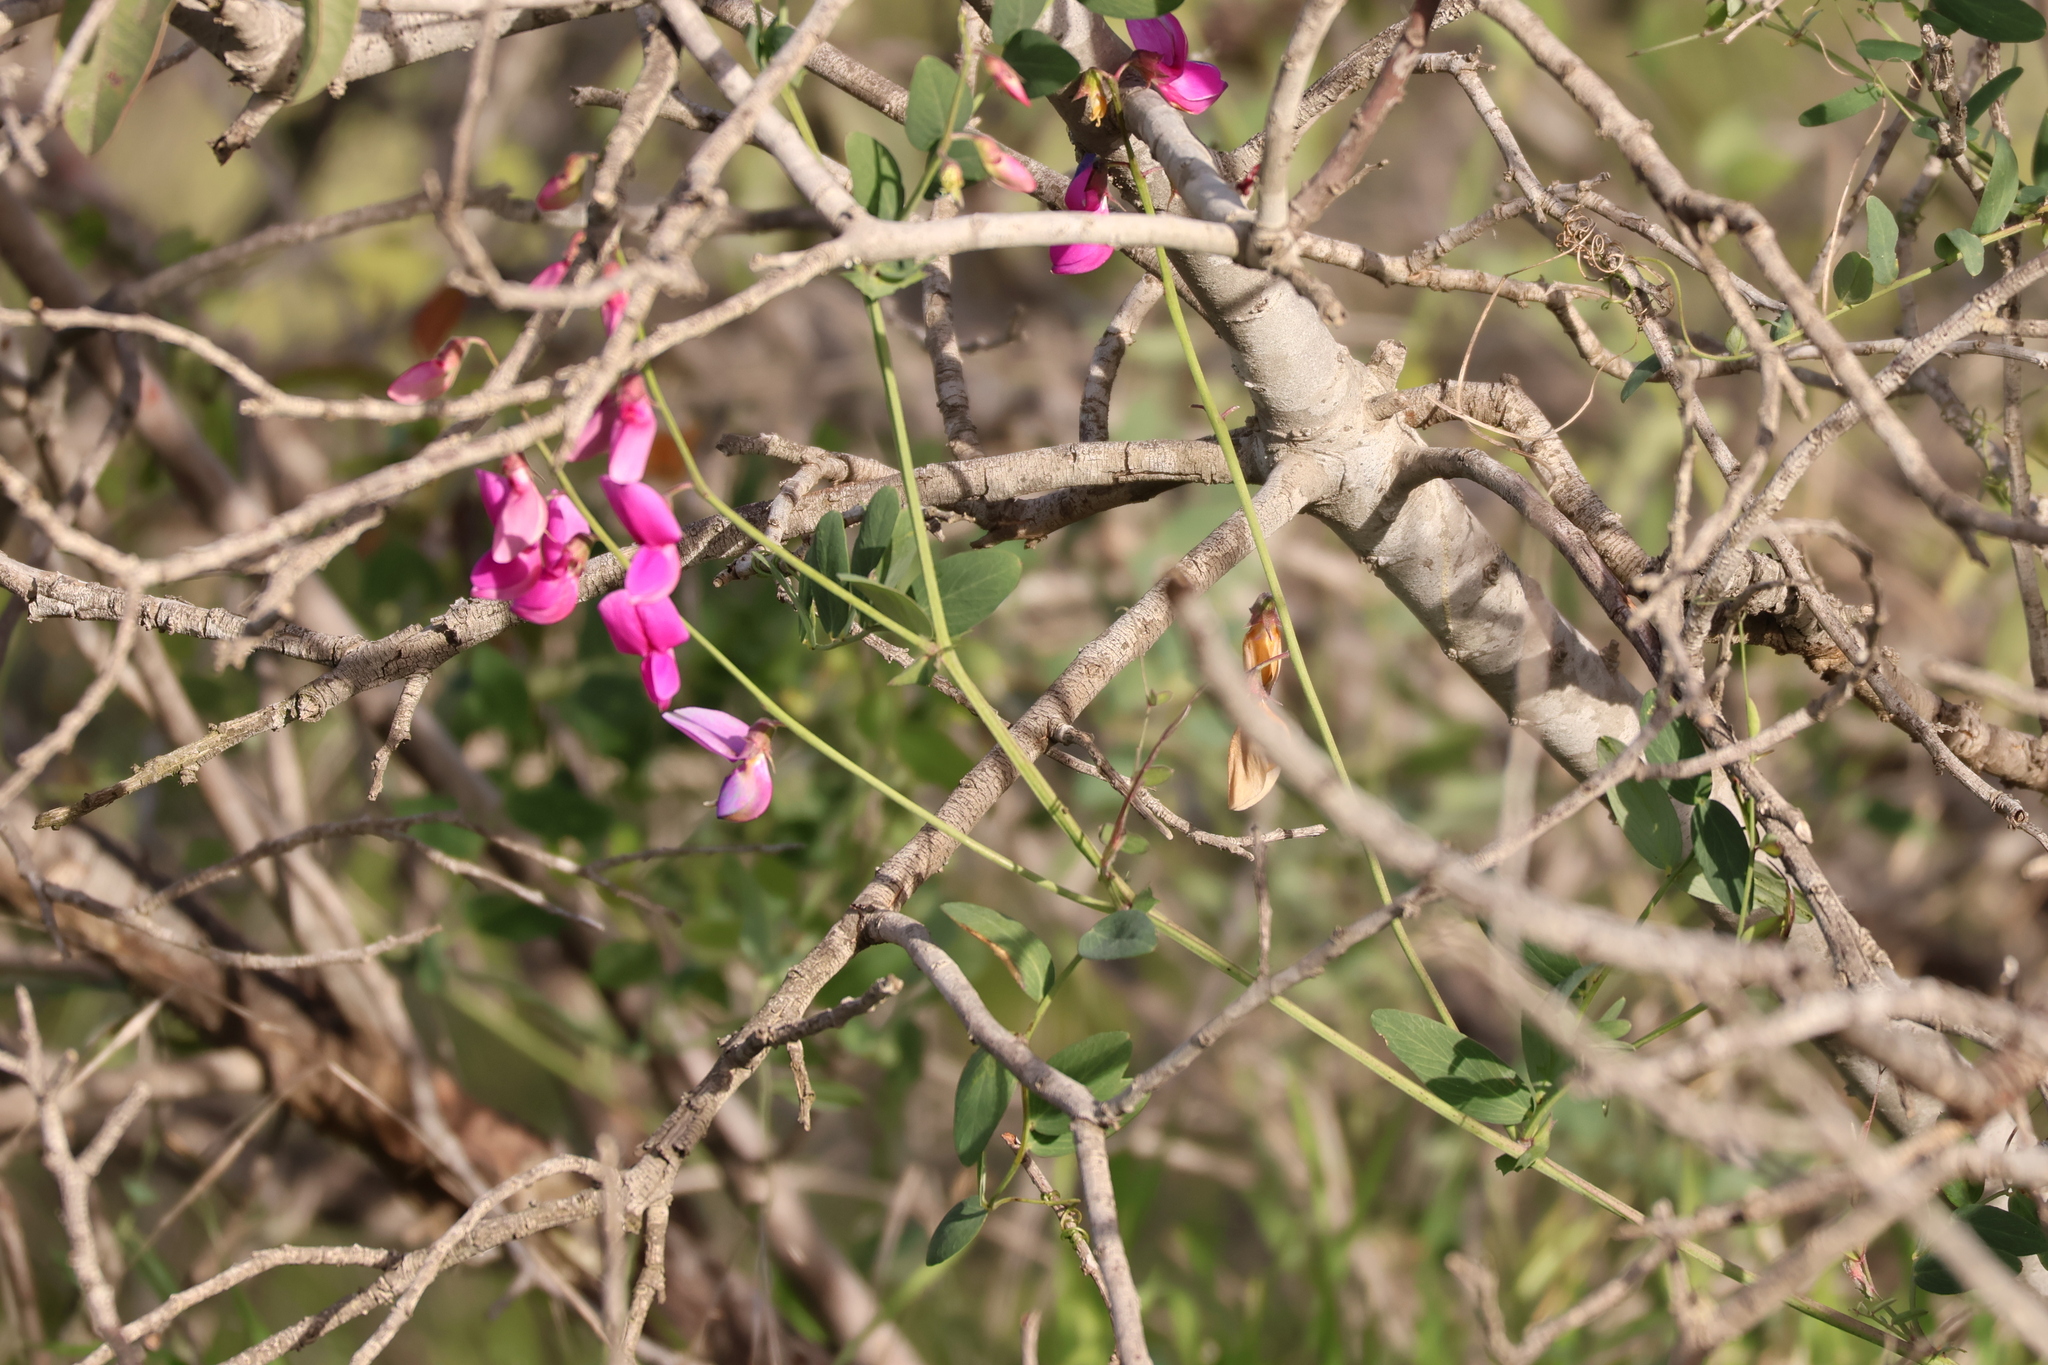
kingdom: Plantae
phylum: Tracheophyta
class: Magnoliopsida
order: Fabales
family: Fabaceae
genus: Lathyrus
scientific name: Lathyrus vestitus
